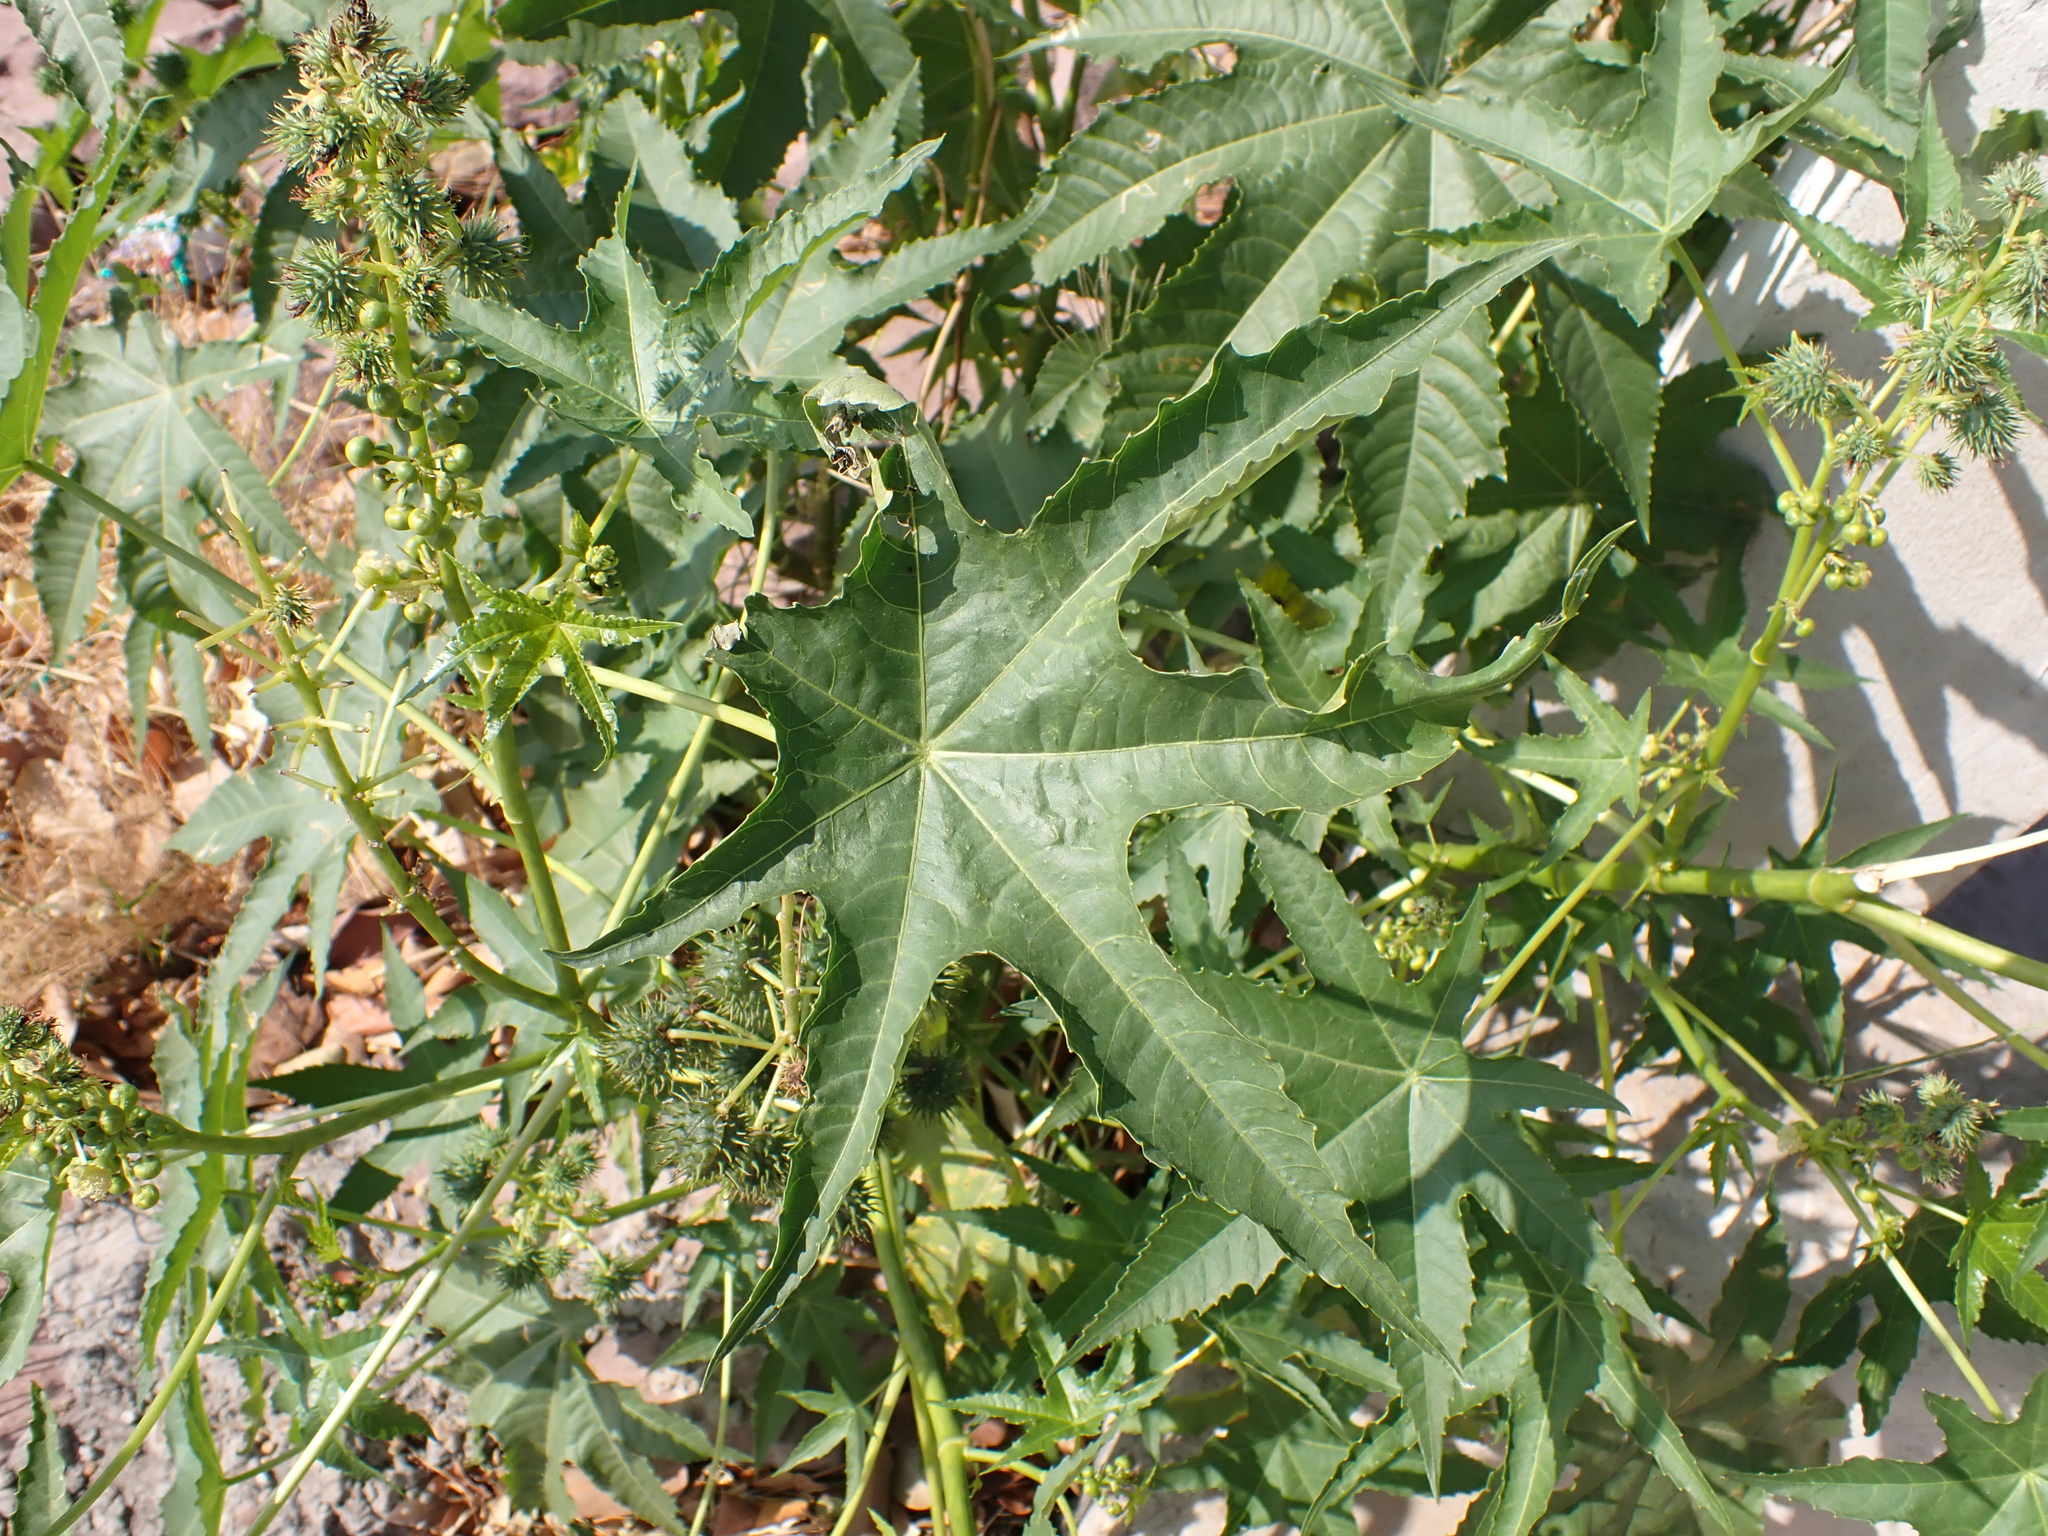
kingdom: Plantae
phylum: Tracheophyta
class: Magnoliopsida
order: Malpighiales
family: Euphorbiaceae
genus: Ricinus
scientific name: Ricinus communis
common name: Castor-oil-plant
